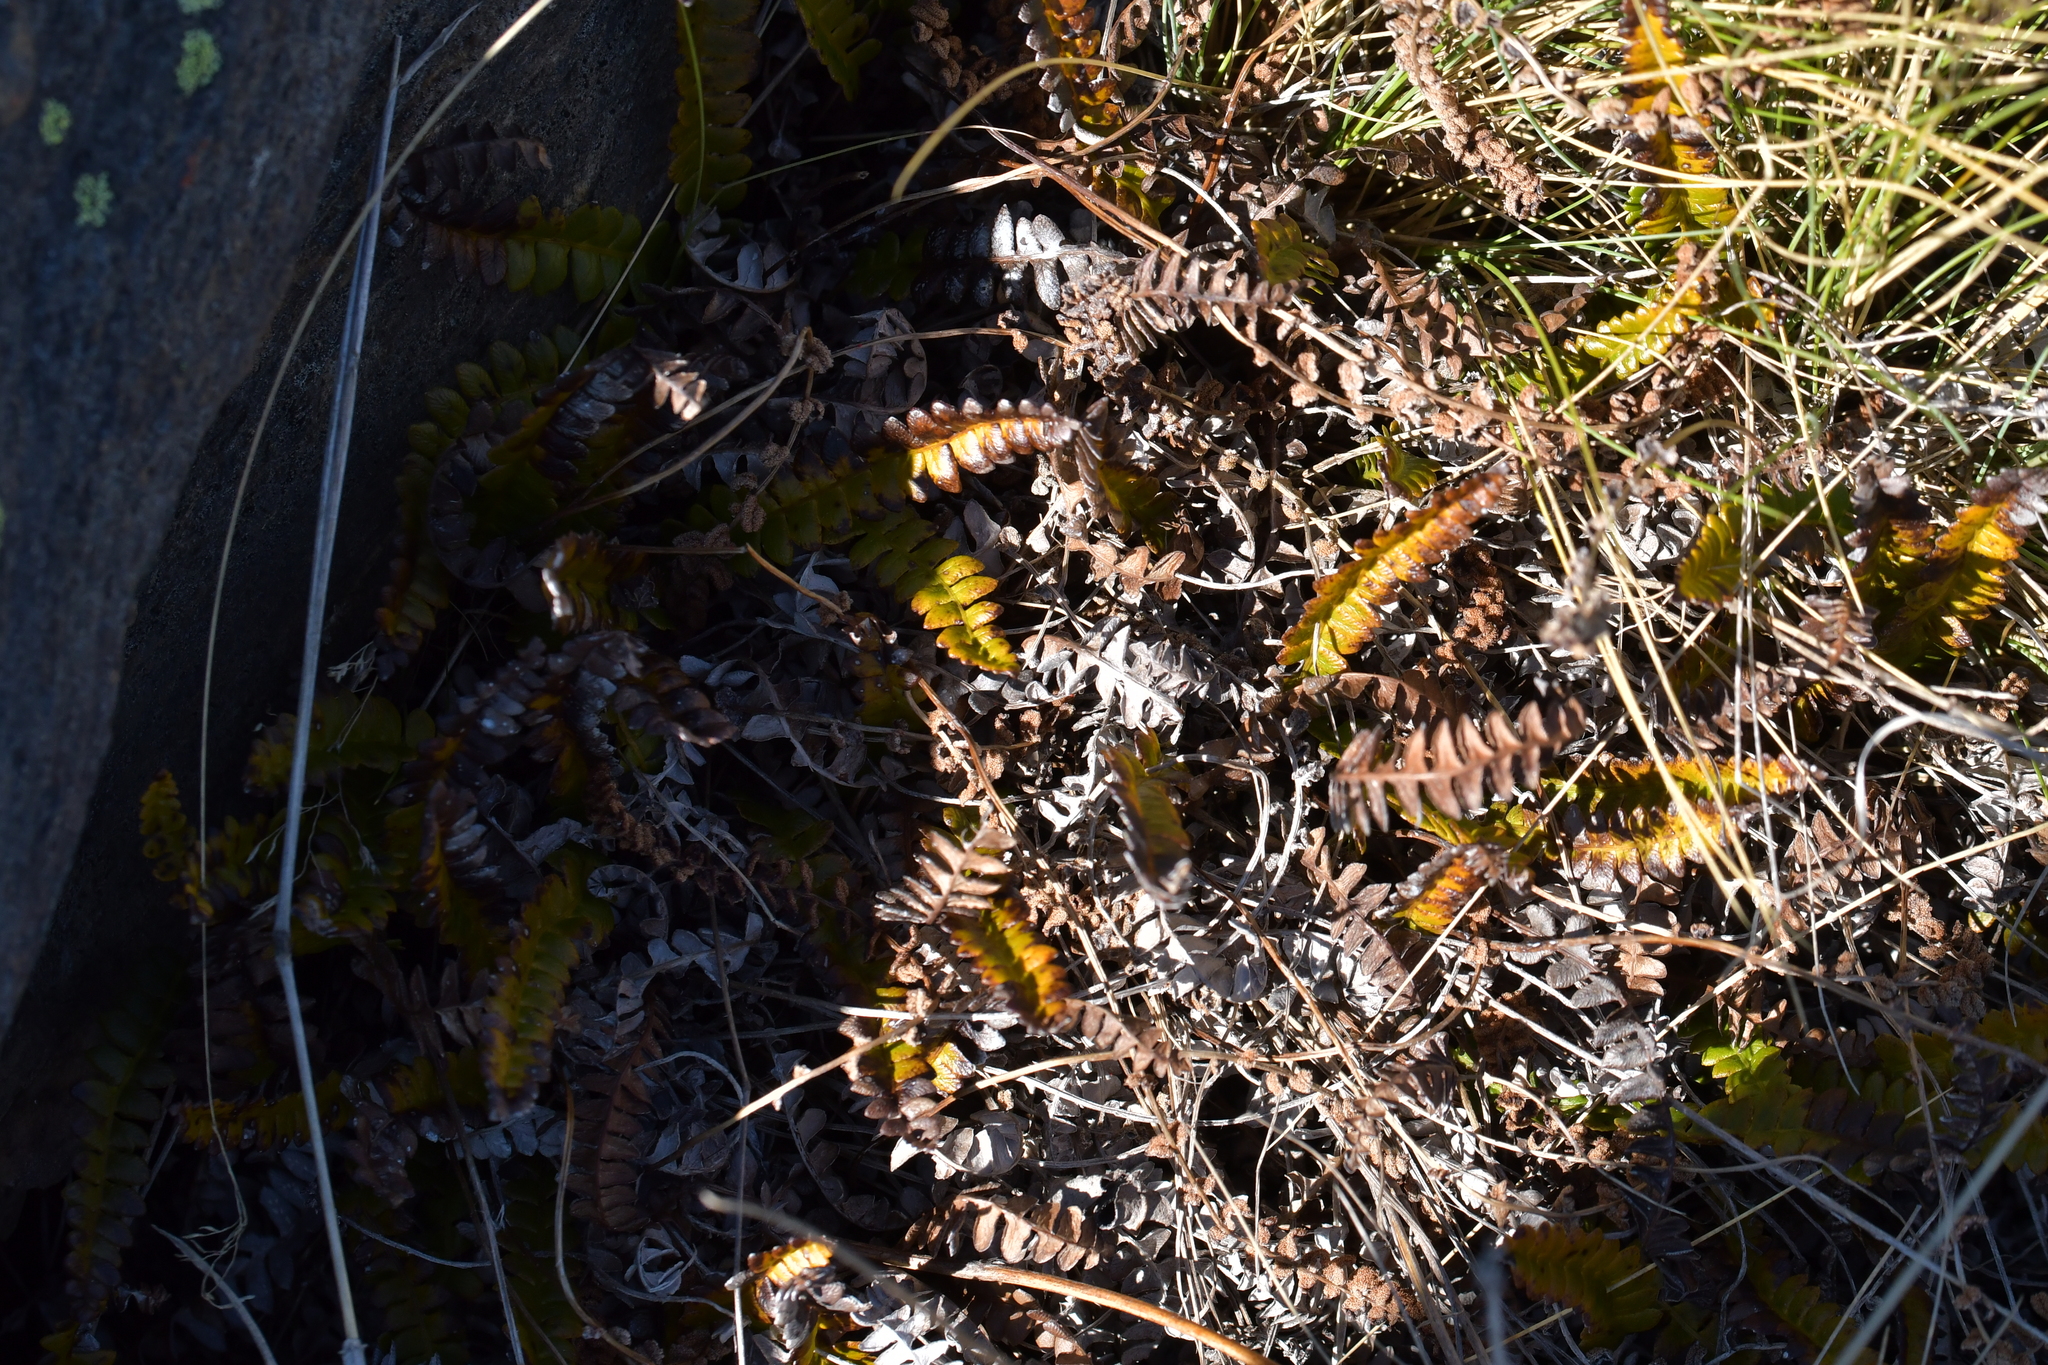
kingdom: Plantae
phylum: Tracheophyta
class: Polypodiopsida
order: Polypodiales
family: Blechnaceae
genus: Austroblechnum
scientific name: Austroblechnum penna-marina
